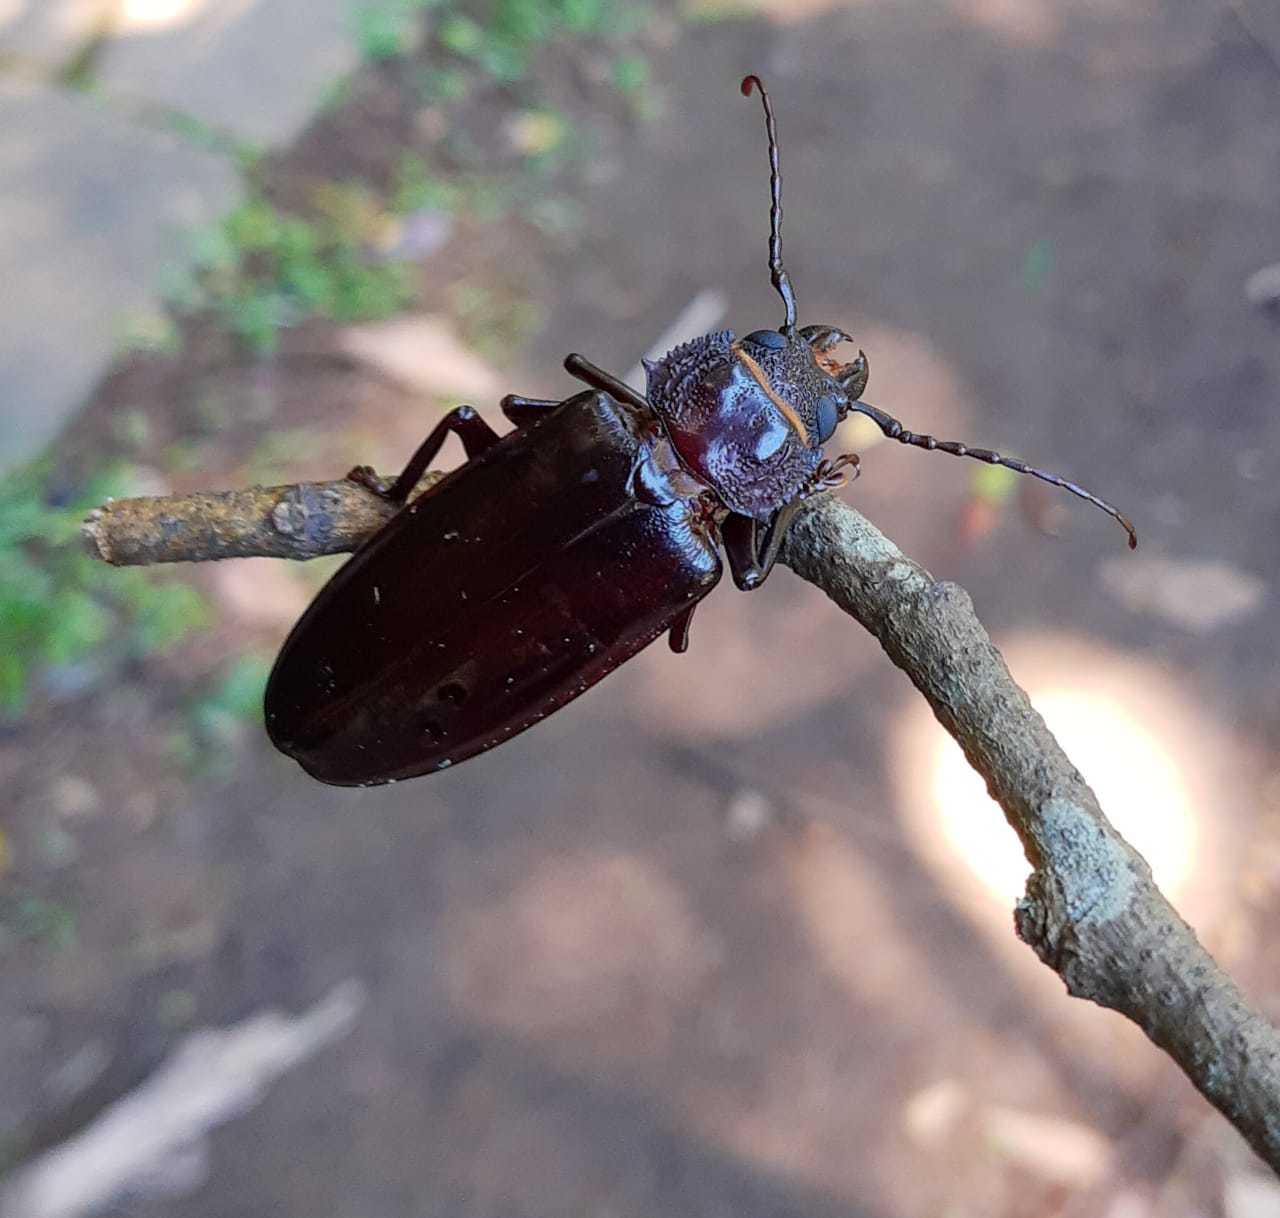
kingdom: Animalia
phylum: Arthropoda
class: Insecta
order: Coleoptera
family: Cerambycidae
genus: Mallodon
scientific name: Mallodon dasystomum
